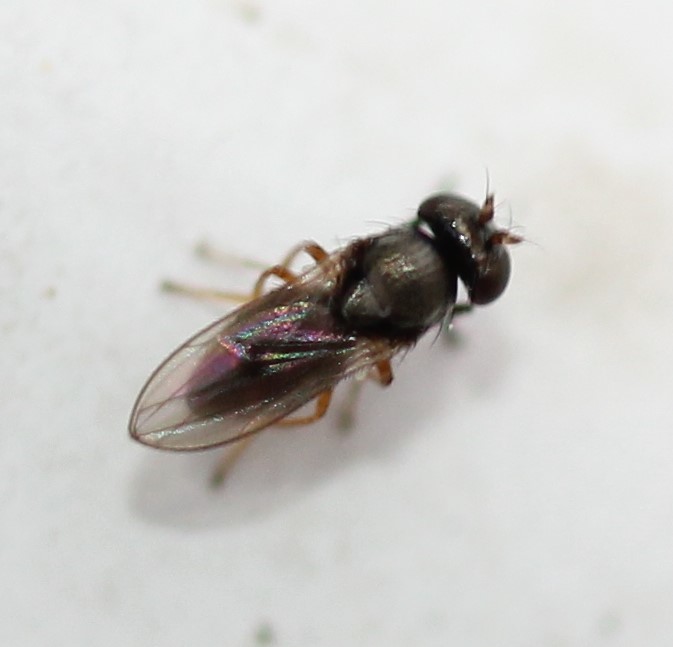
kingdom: Animalia
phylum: Arthropoda
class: Insecta
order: Diptera
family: Ephydridae
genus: Leptopsilopa
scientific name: Leptopsilopa atrimanus
